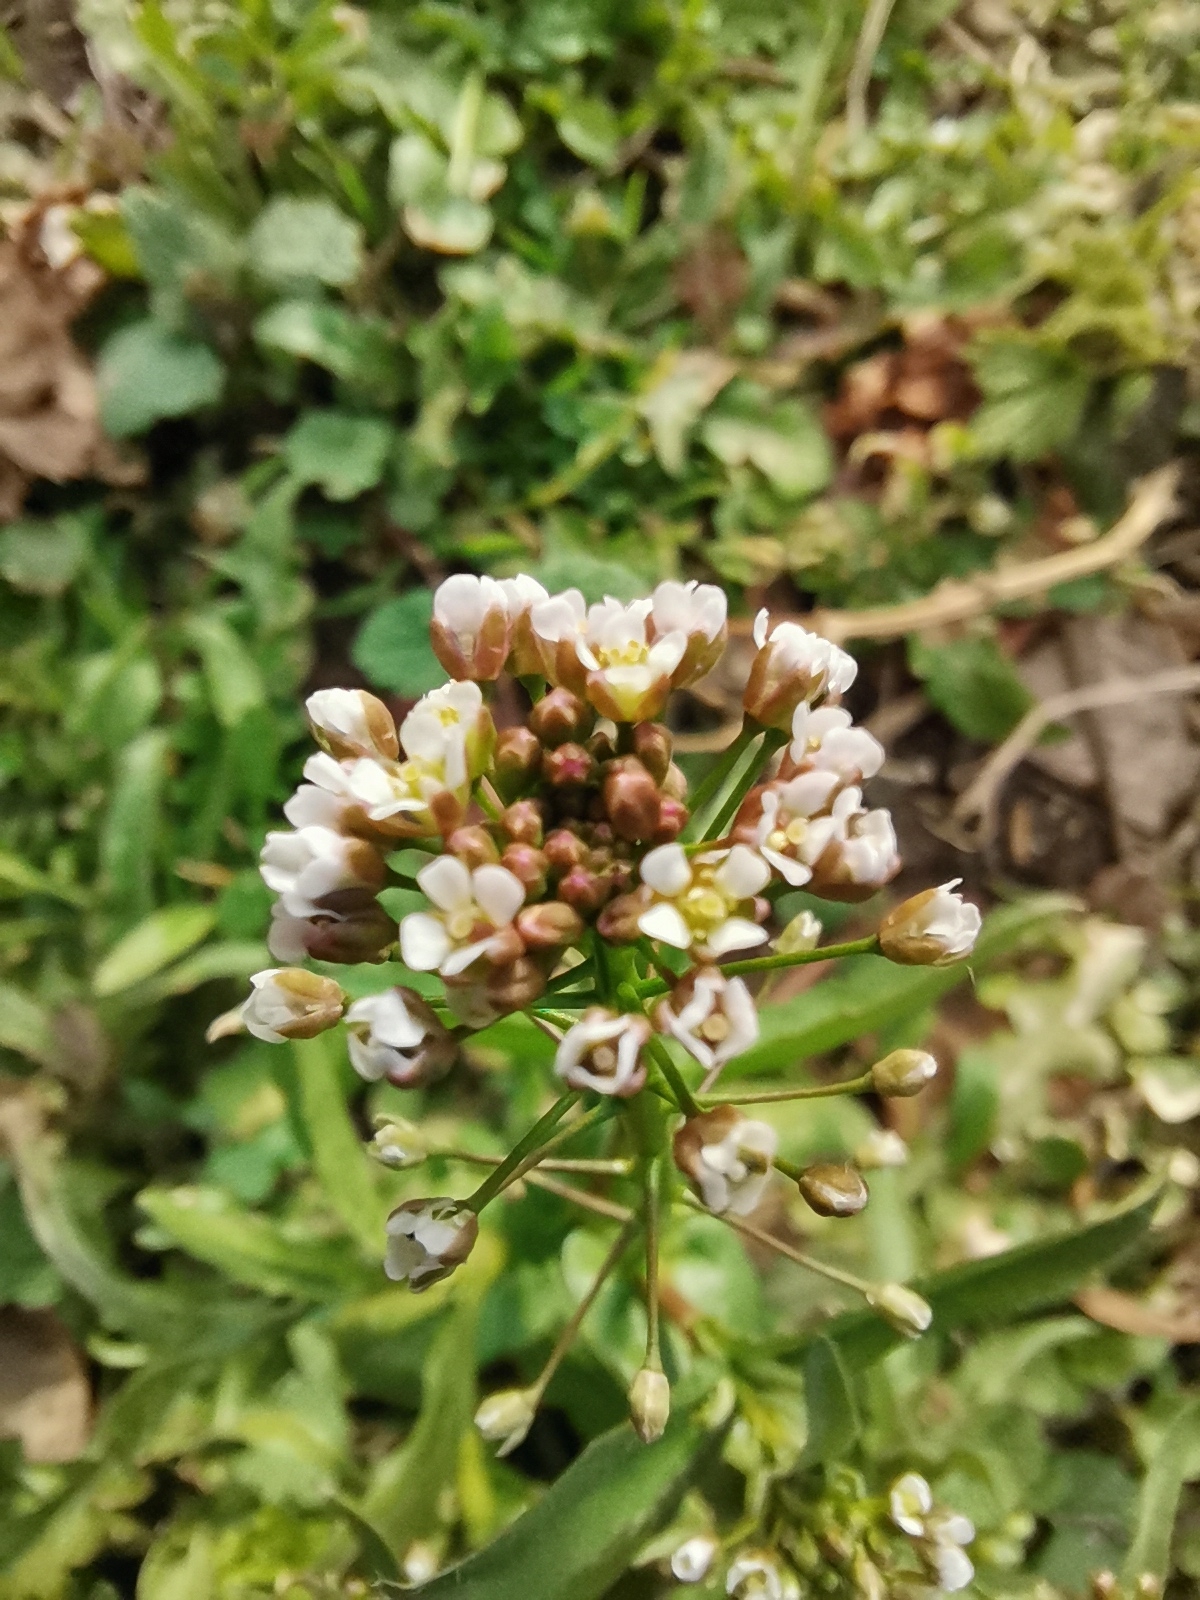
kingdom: Plantae
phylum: Tracheophyta
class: Magnoliopsida
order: Brassicales
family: Brassicaceae
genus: Capsella
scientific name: Capsella bursa-pastoris
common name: Shepherd's purse
